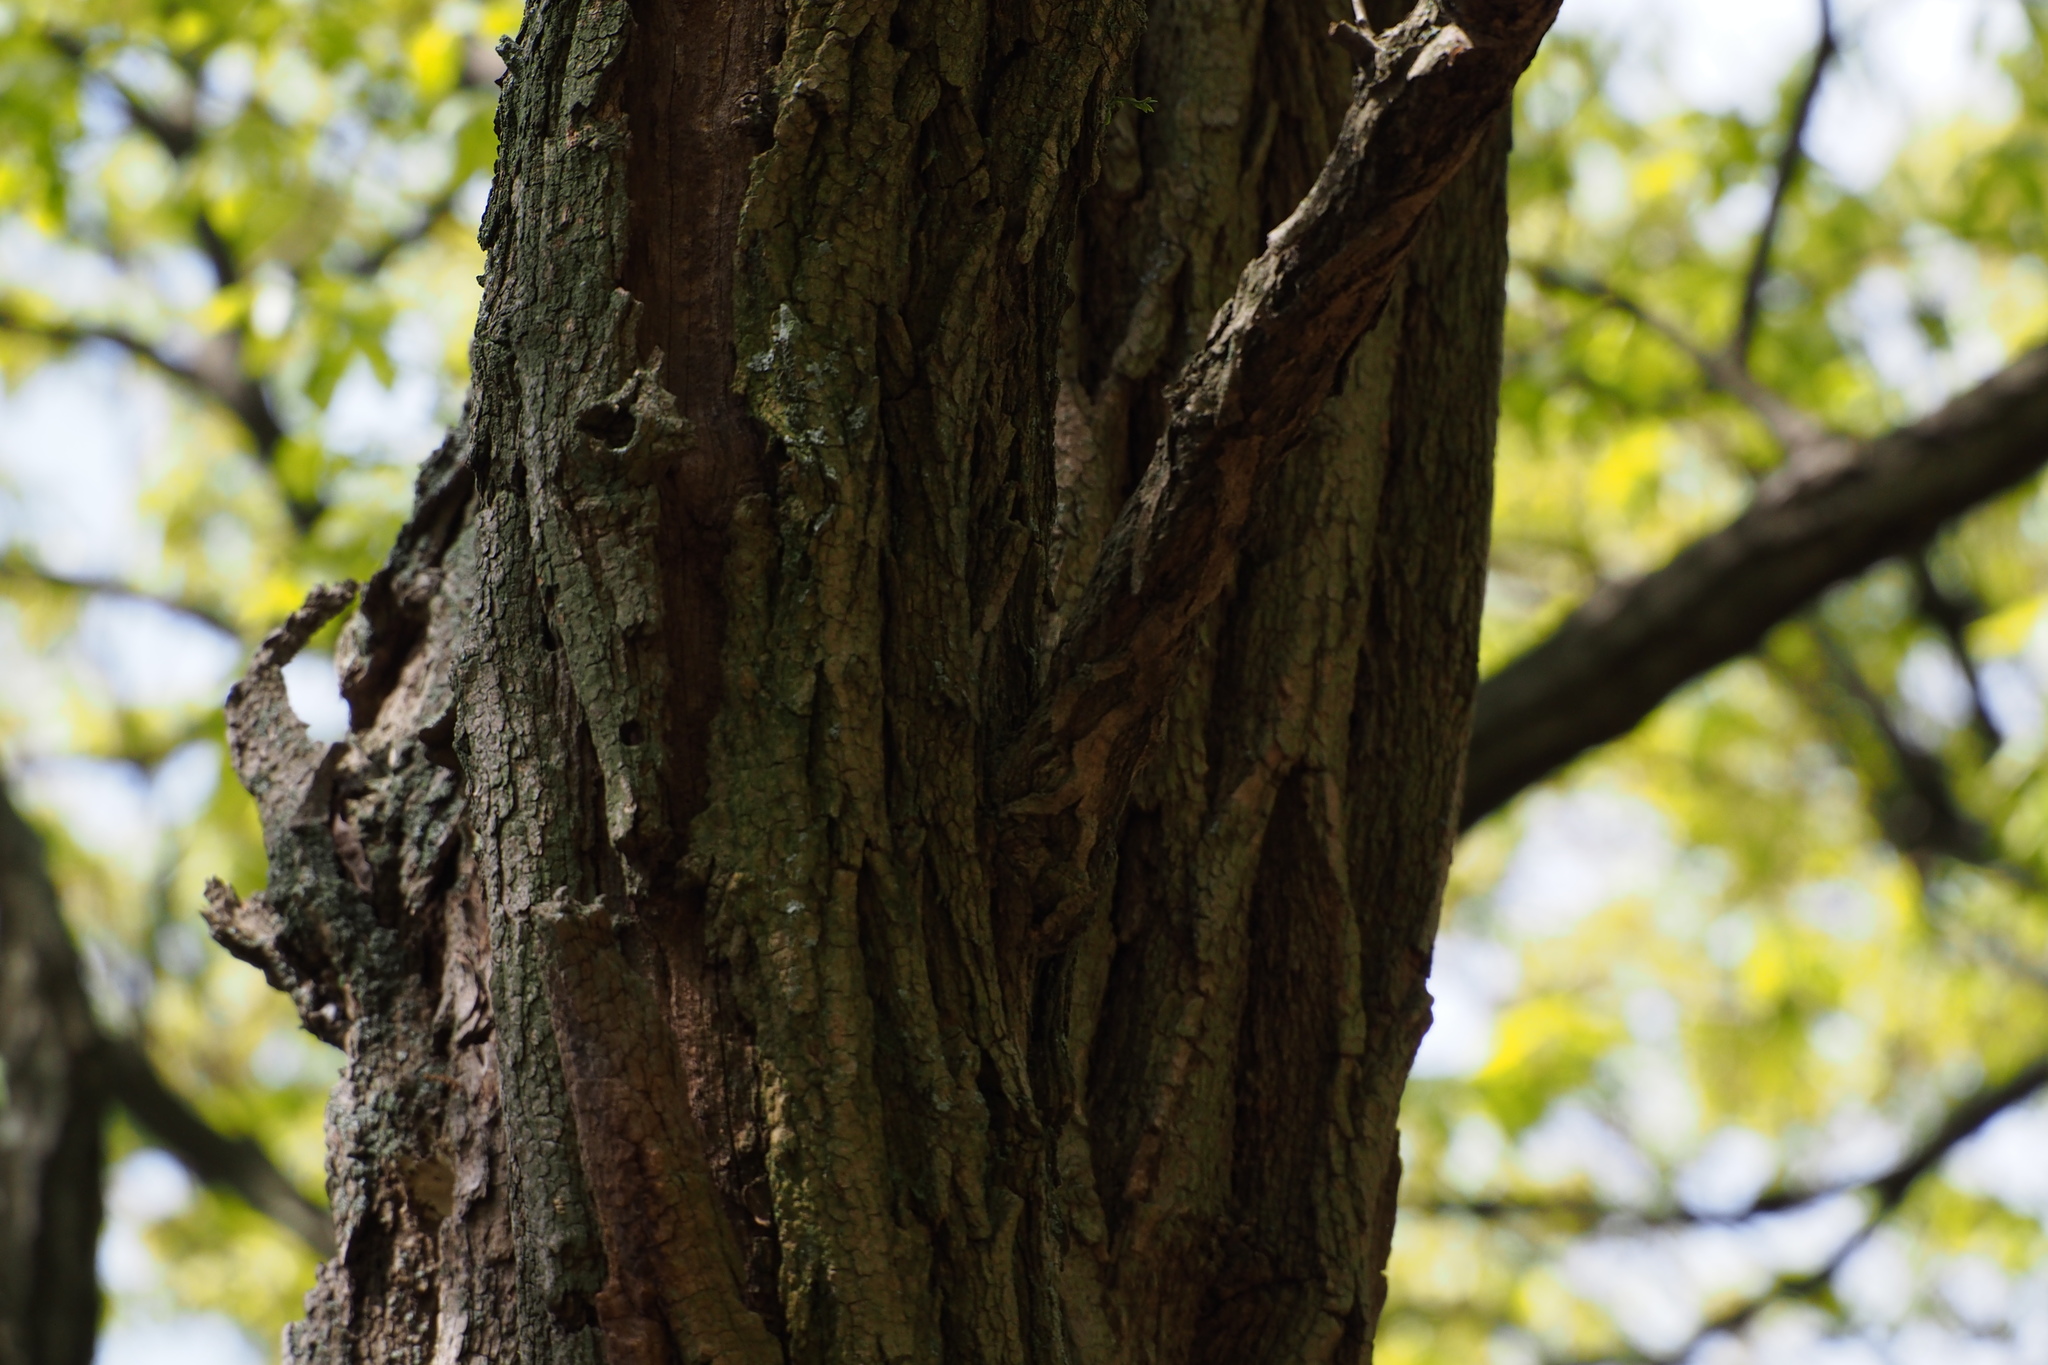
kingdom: Plantae
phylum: Tracheophyta
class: Magnoliopsida
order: Fabales
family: Fabaceae
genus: Robinia
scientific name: Robinia pseudoacacia
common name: Black locust
